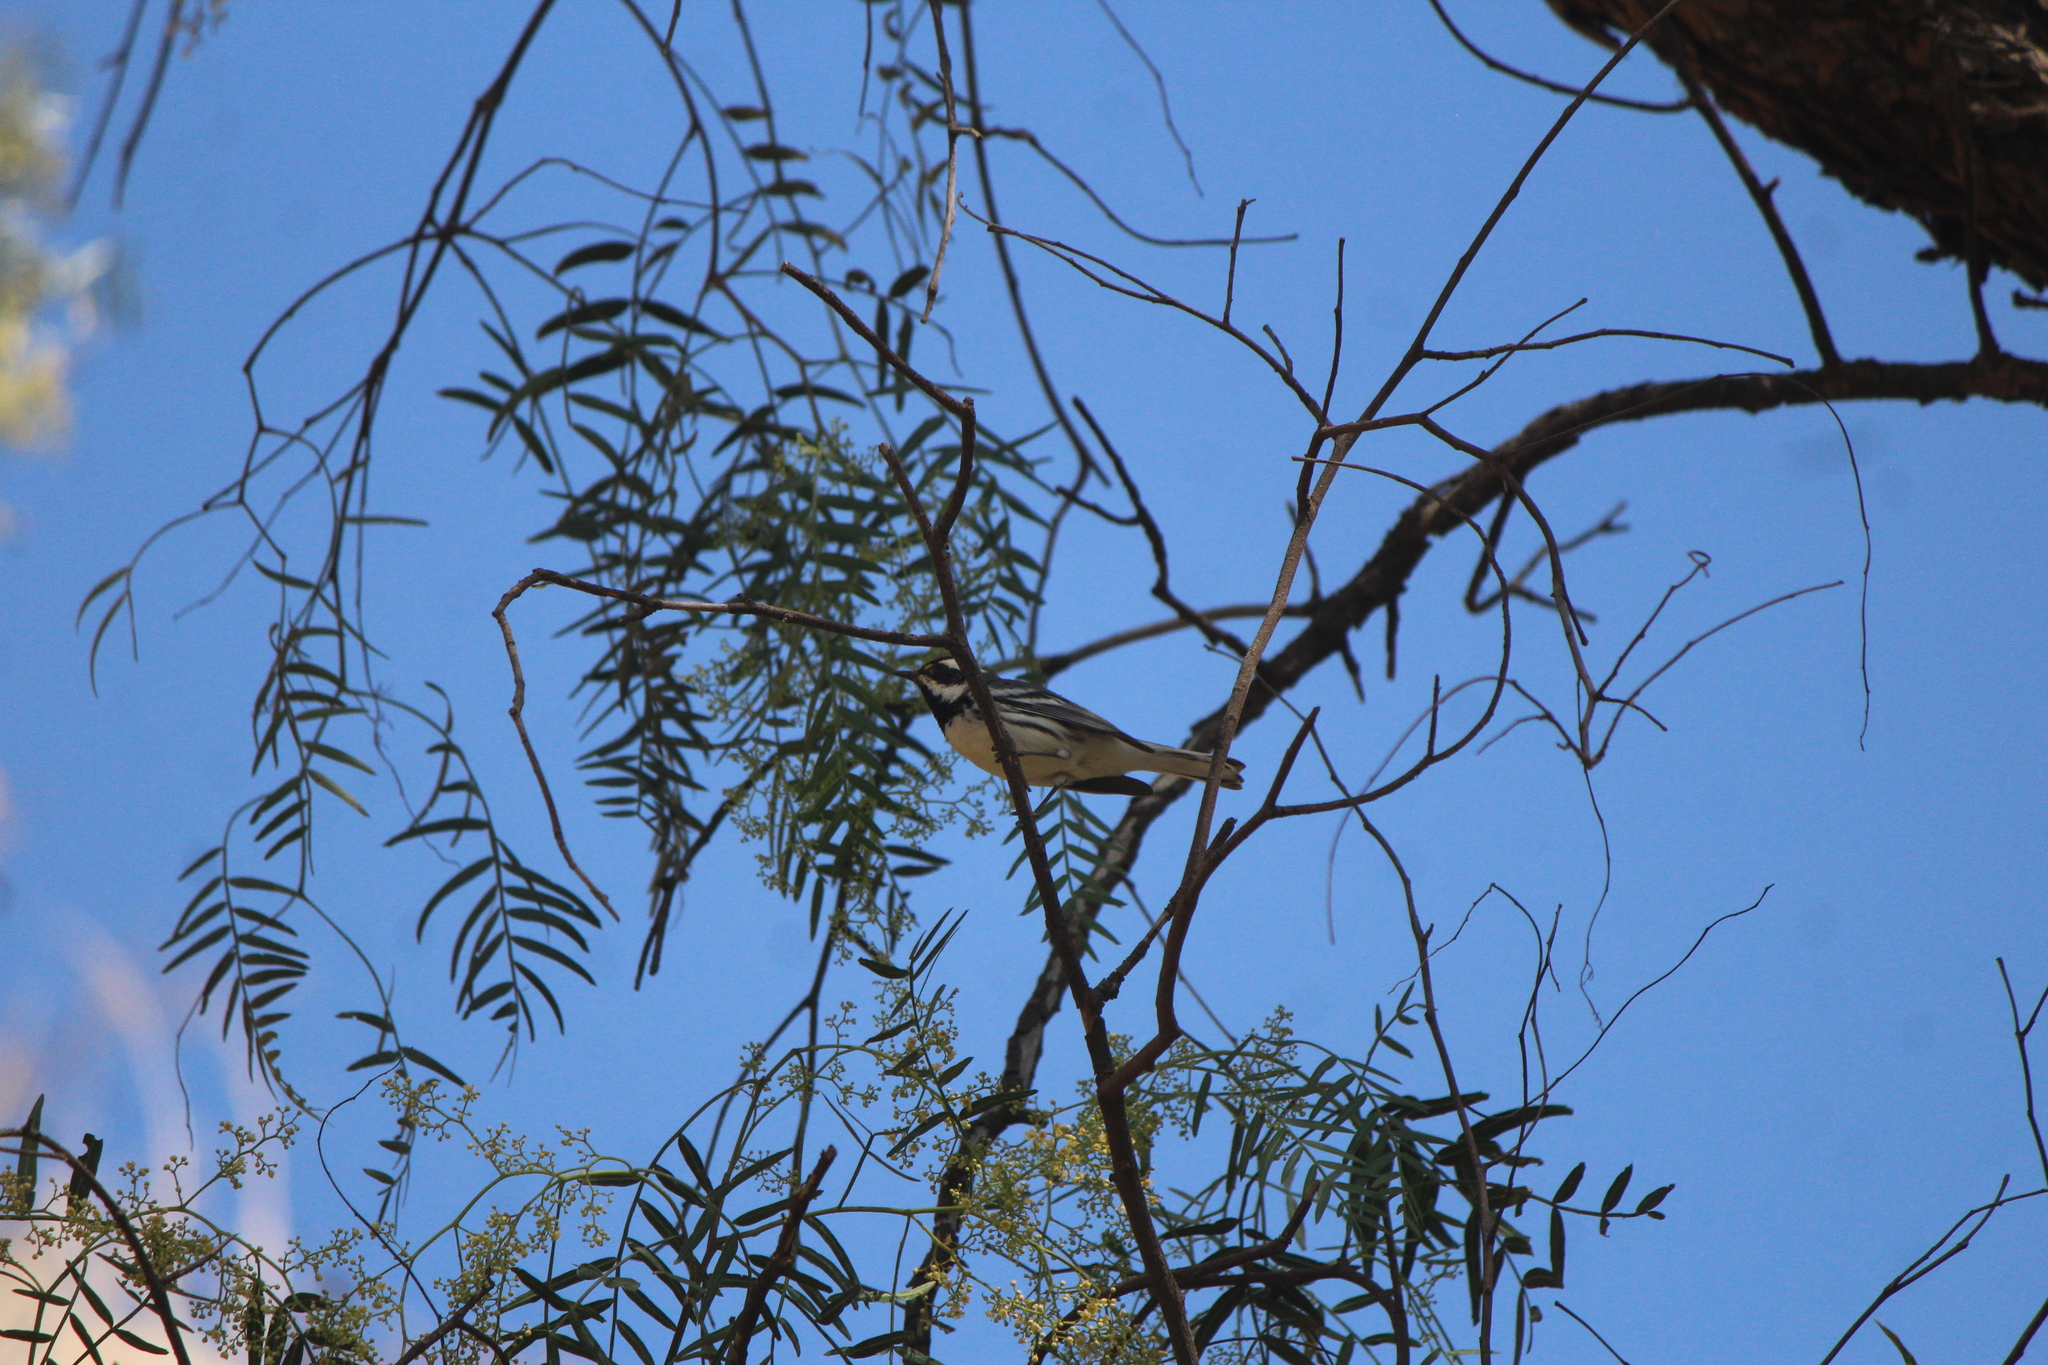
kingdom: Animalia
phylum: Chordata
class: Aves
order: Passeriformes
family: Parulidae
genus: Setophaga
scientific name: Setophaga nigrescens
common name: Black-throated gray warbler
